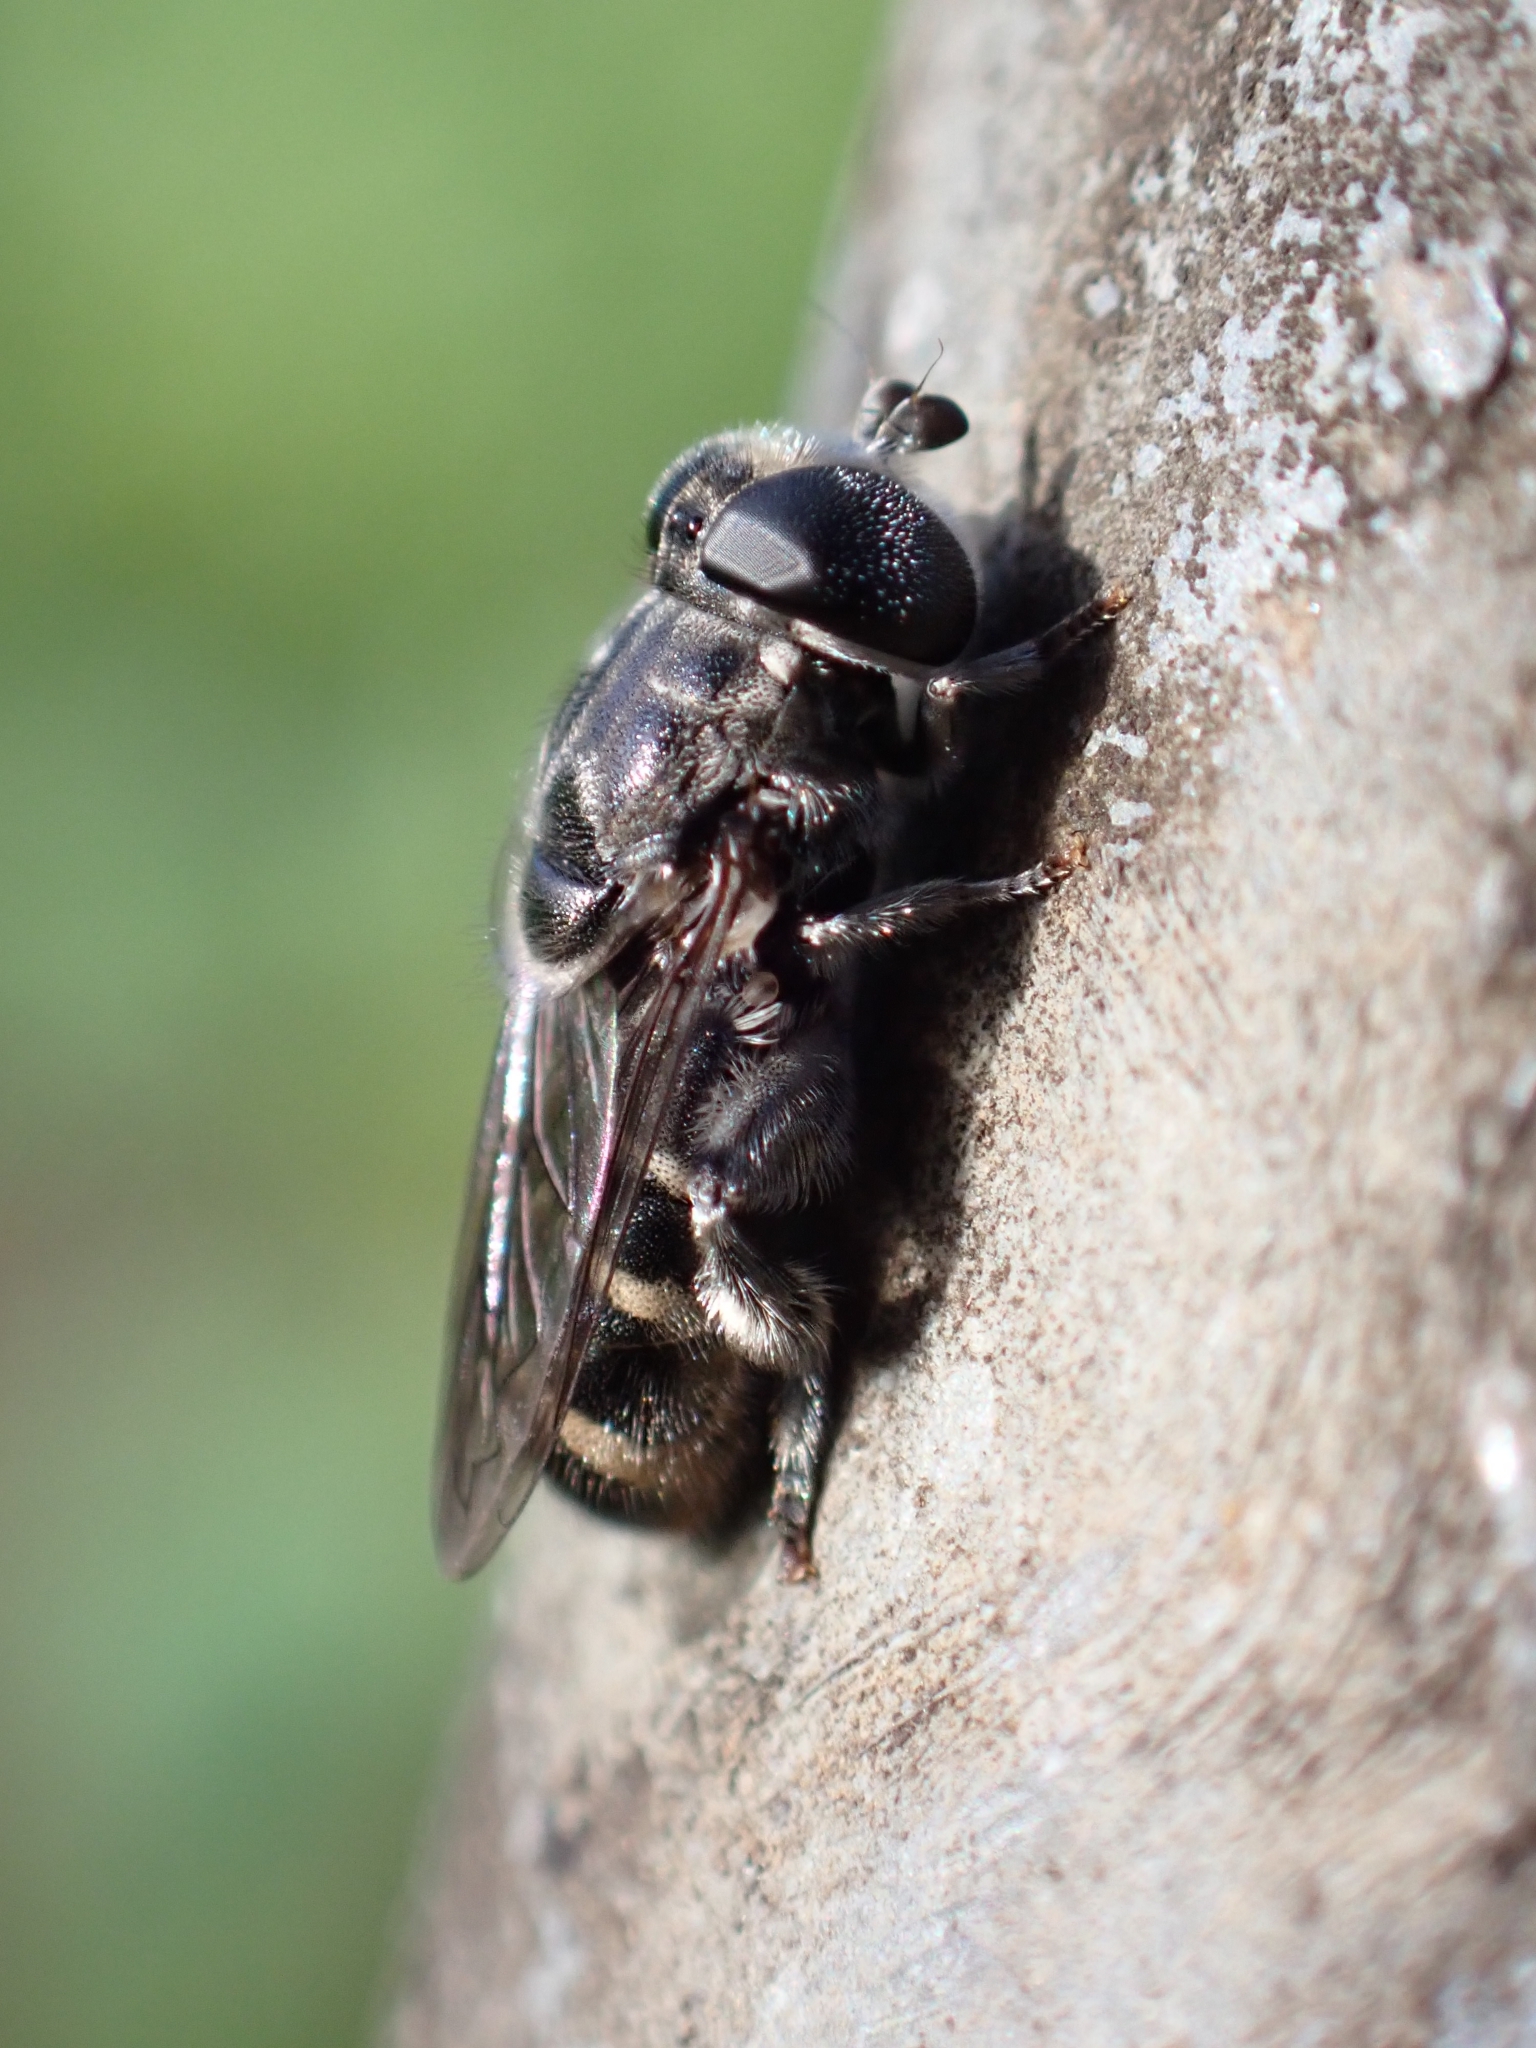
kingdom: Animalia
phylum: Arthropoda
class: Insecta
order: Diptera
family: Syrphidae
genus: Eumerus
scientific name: Eumerus obliquus
